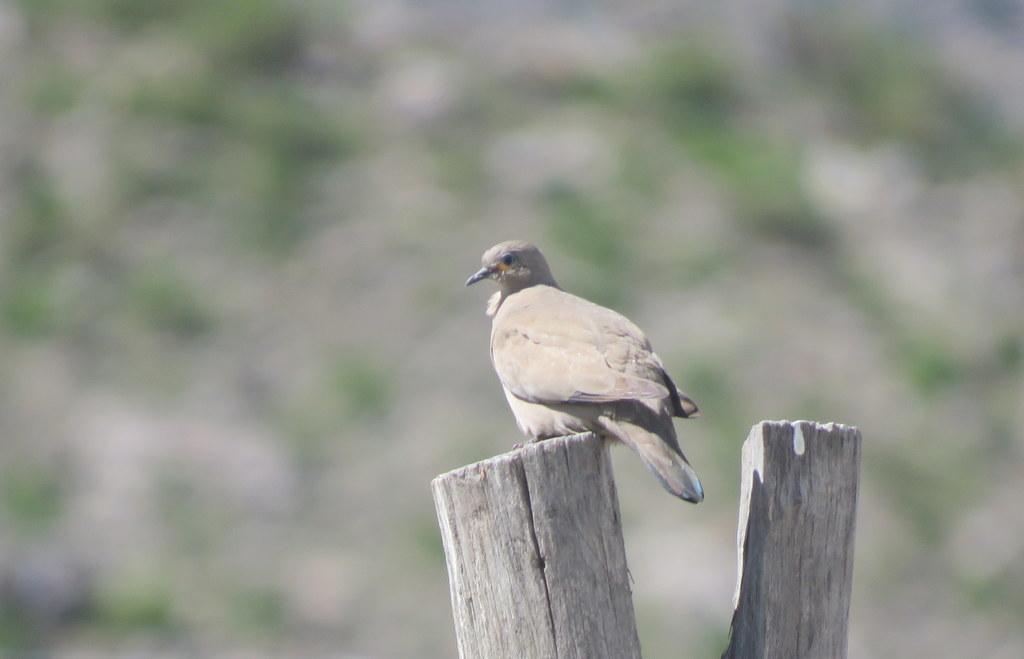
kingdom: Animalia
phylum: Chordata
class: Aves
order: Columbiformes
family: Columbidae
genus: Metriopelia
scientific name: Metriopelia melanoptera
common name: Black-winged ground dove
